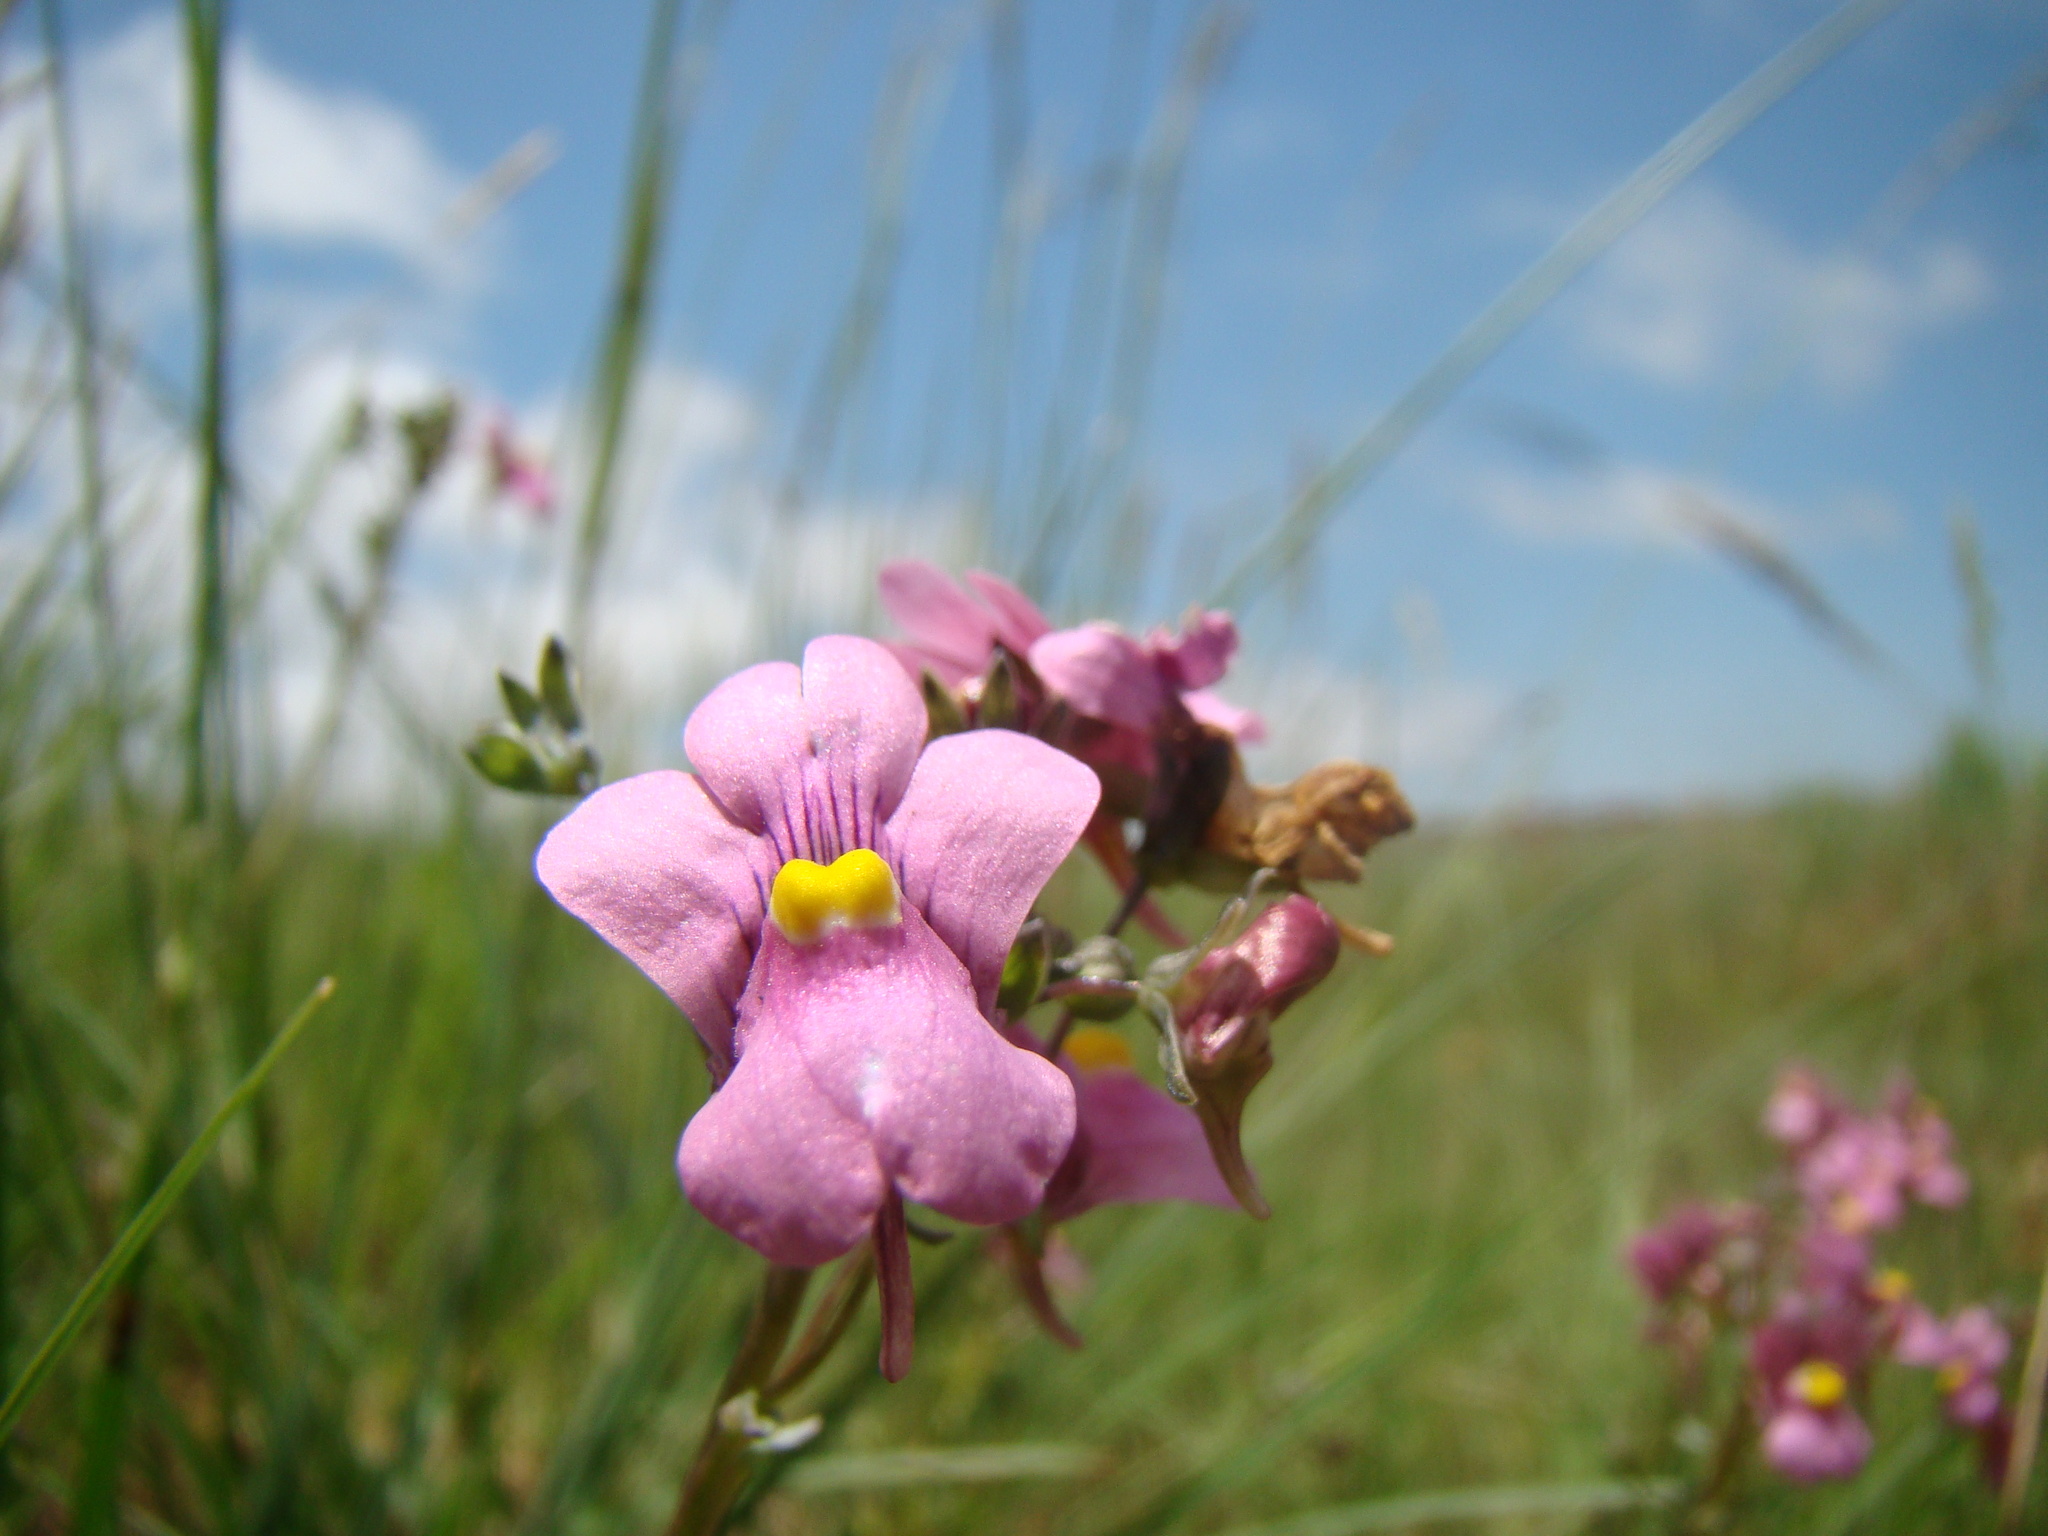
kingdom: Plantae
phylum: Tracheophyta
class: Magnoliopsida
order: Lamiales
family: Scrophulariaceae
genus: Nemesia
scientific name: Nemesia fruticans
